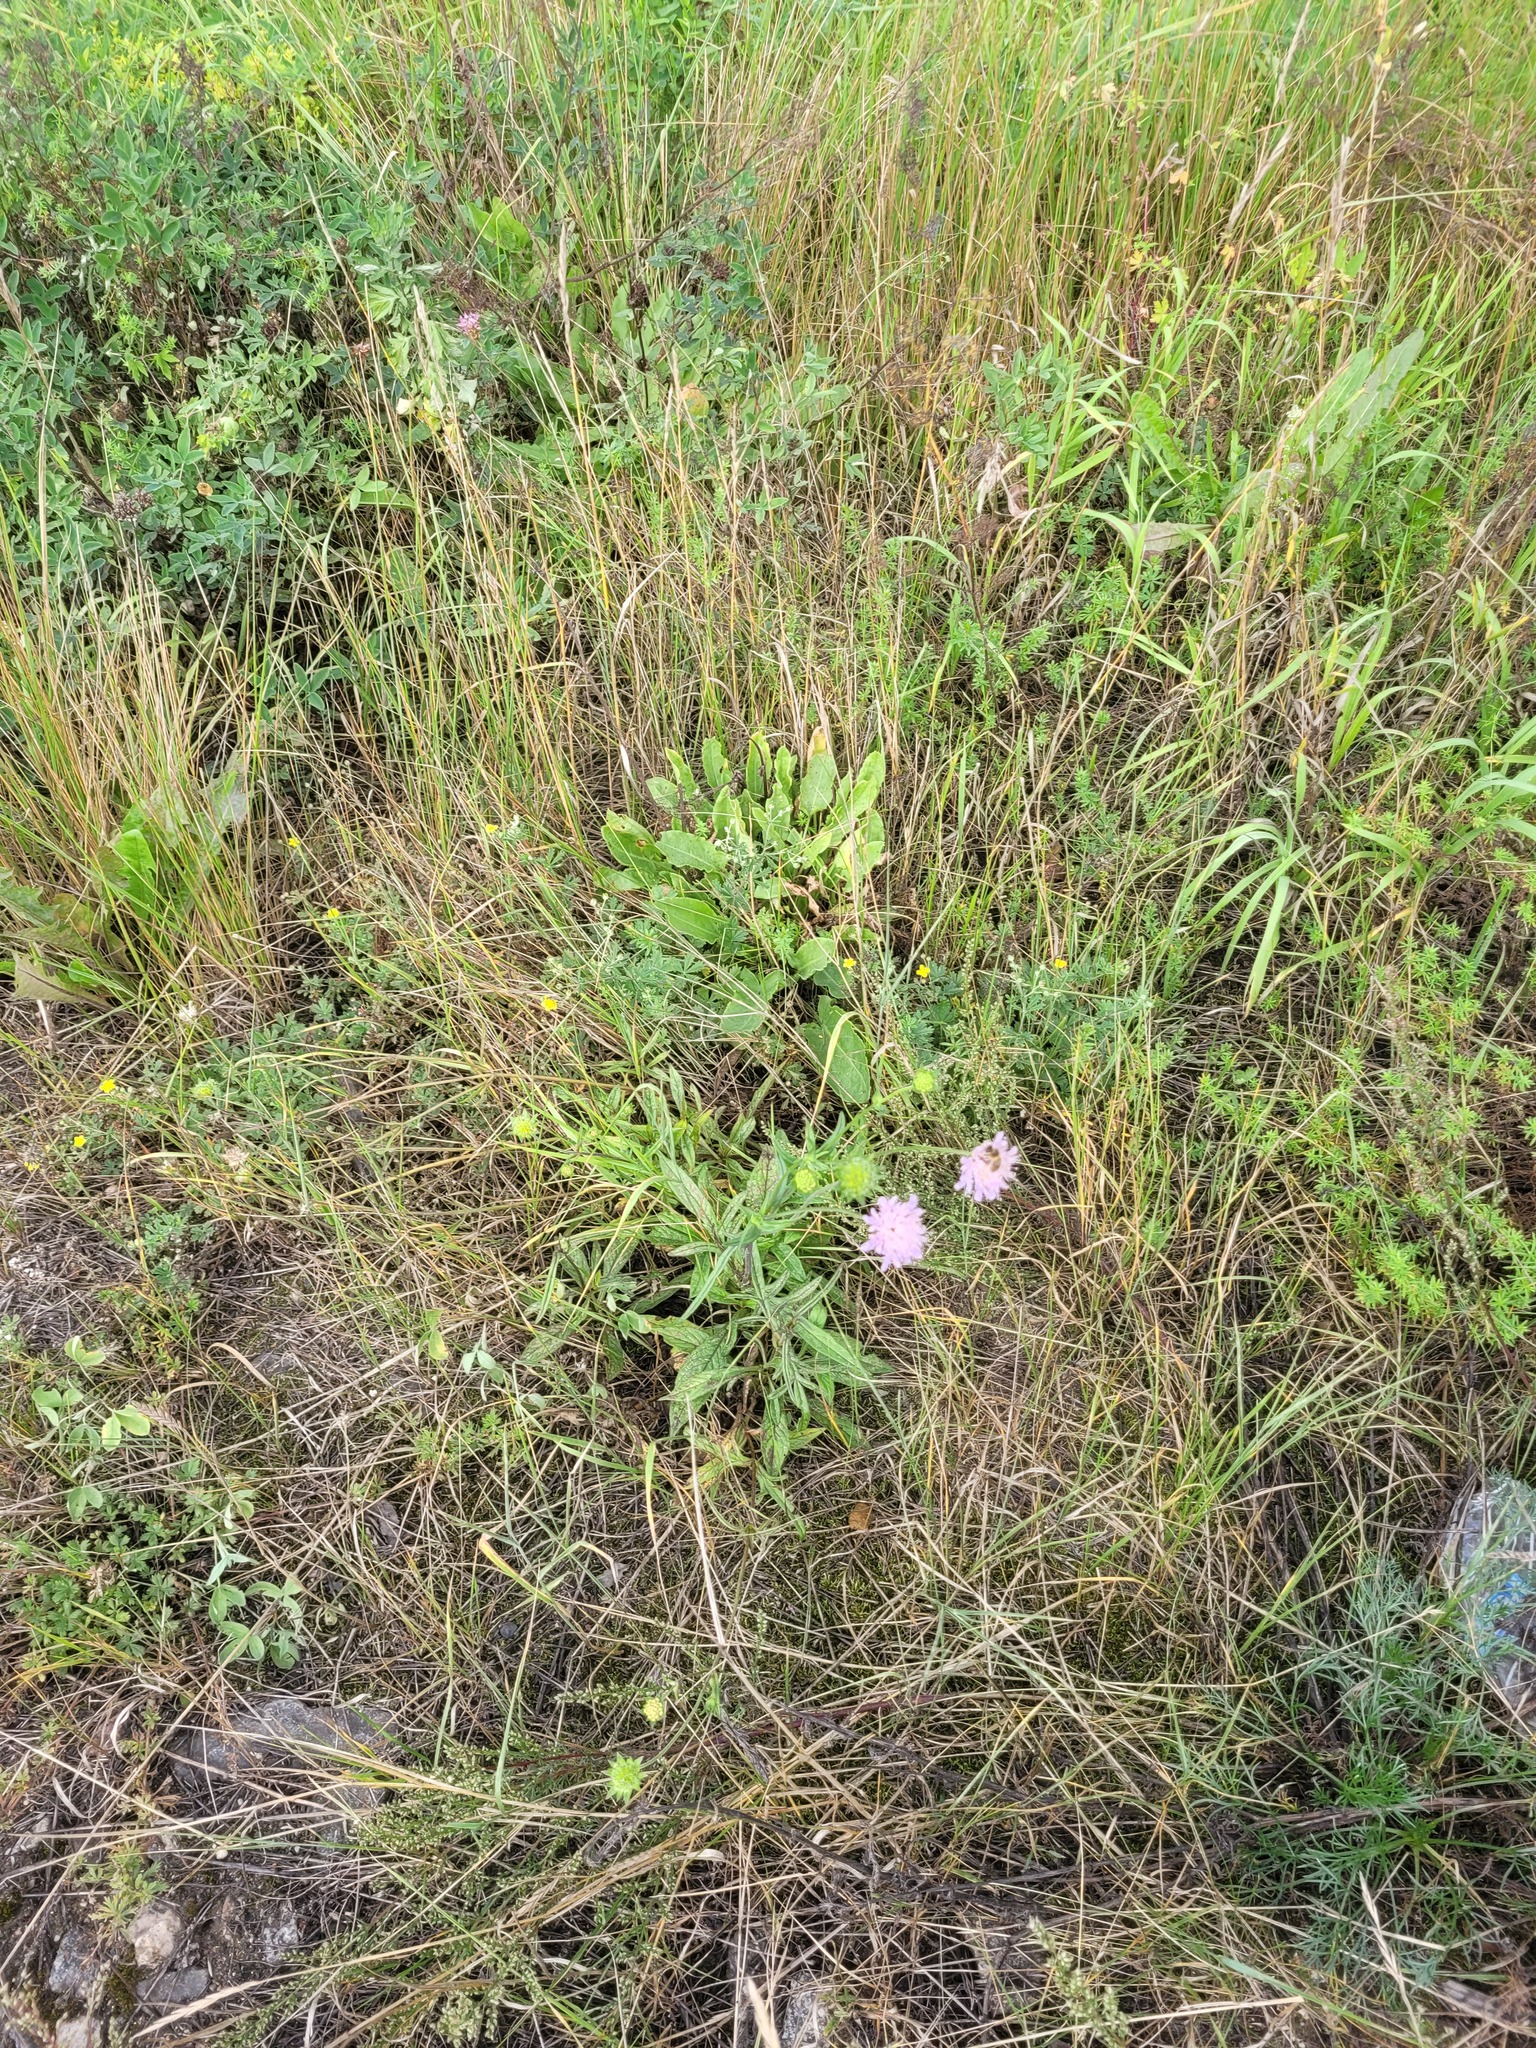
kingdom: Plantae
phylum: Tracheophyta
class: Magnoliopsida
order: Dipsacales
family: Caprifoliaceae
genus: Knautia
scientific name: Knautia arvensis
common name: Field scabiosa
